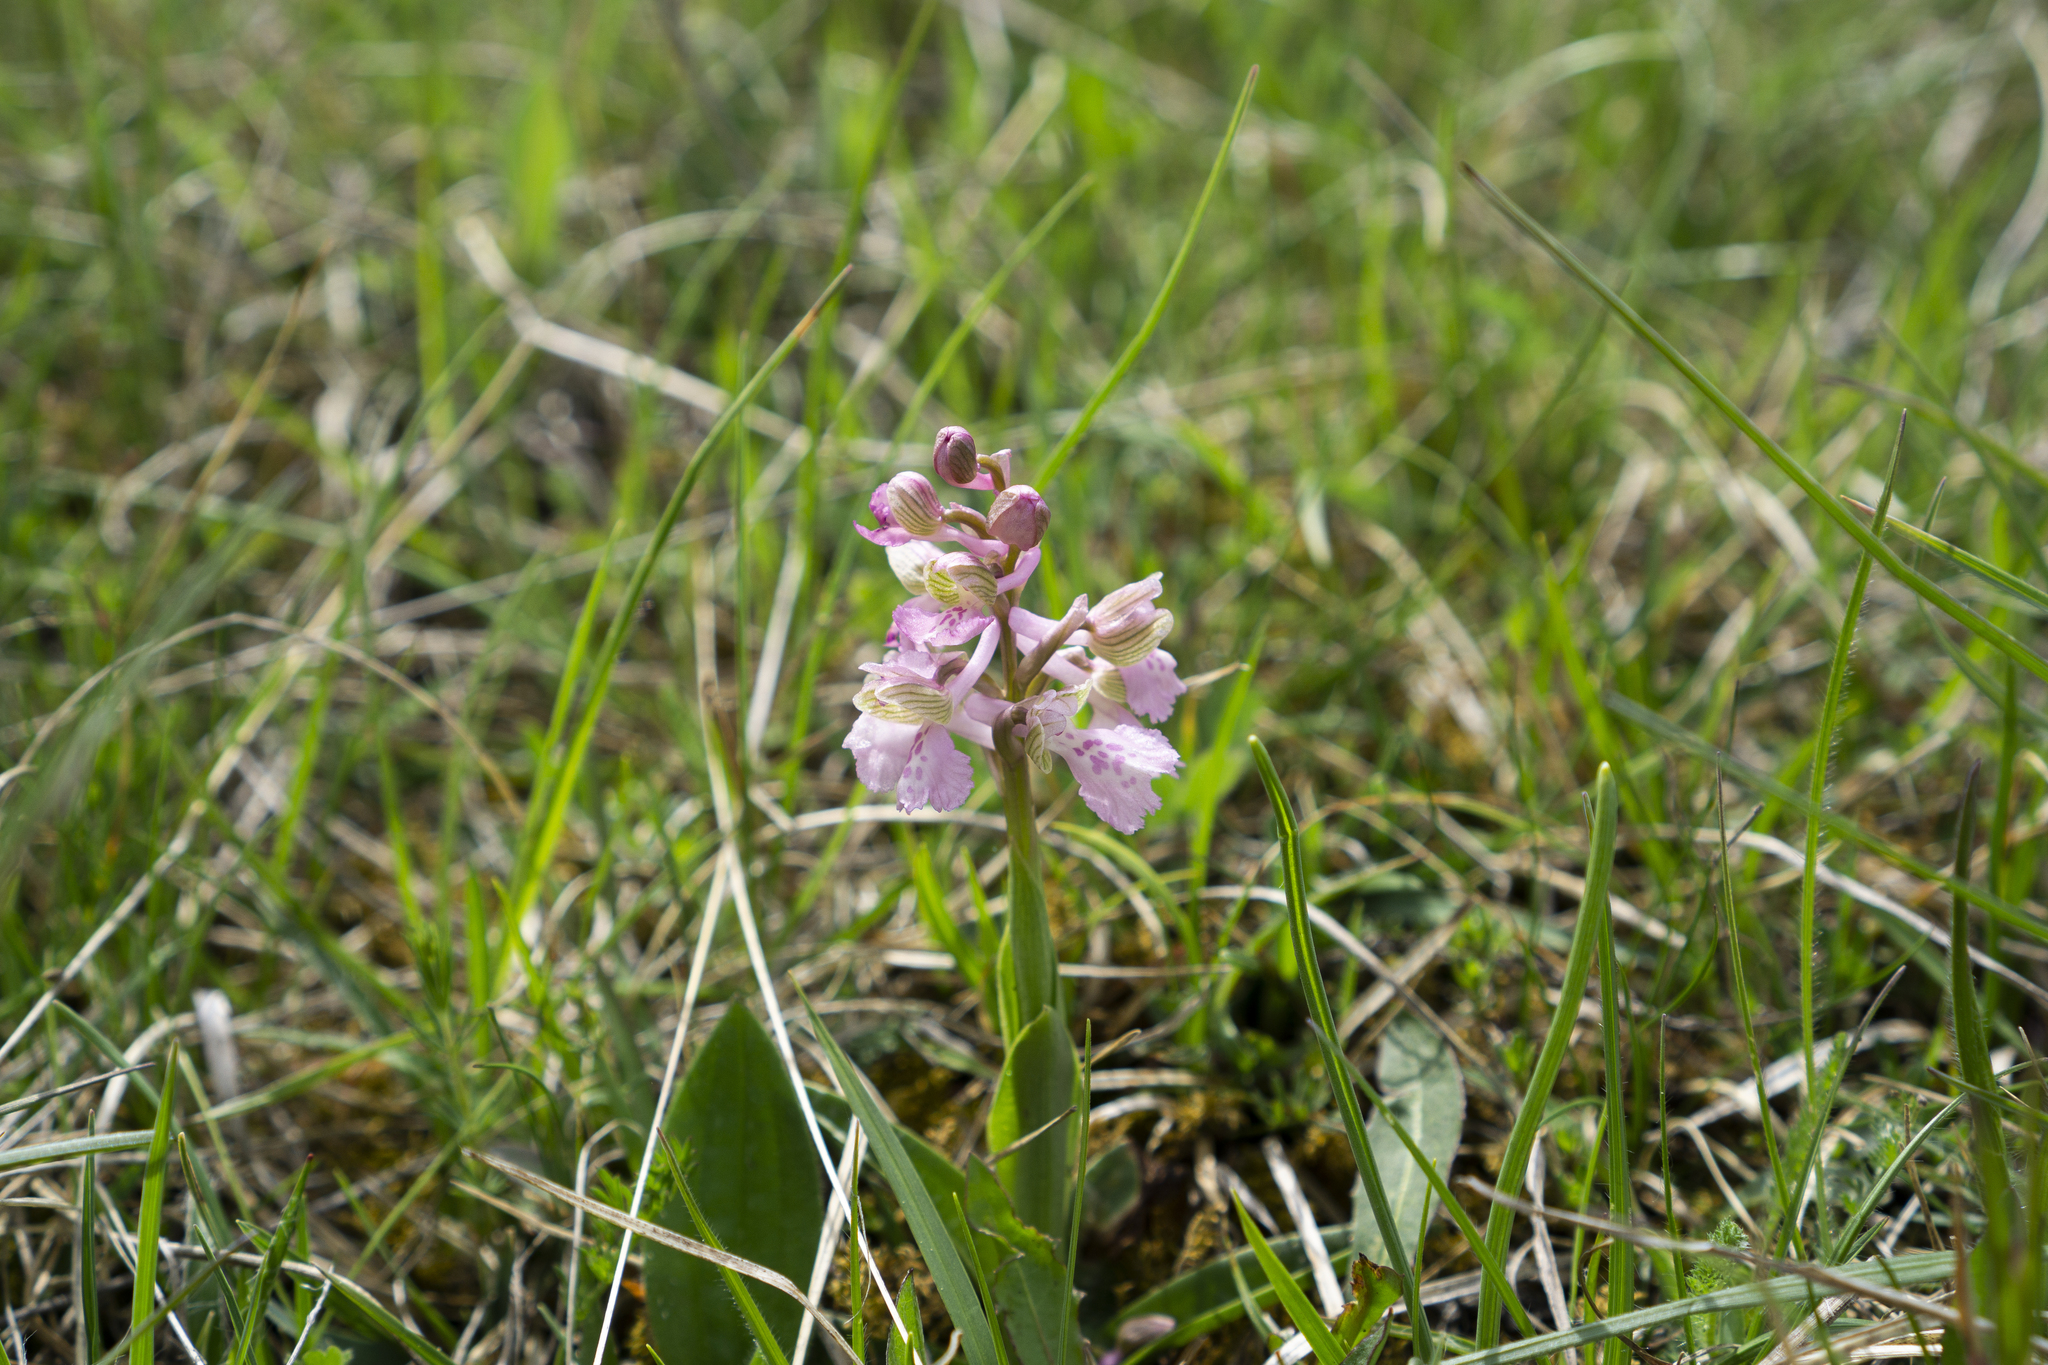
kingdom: Plantae
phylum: Tracheophyta
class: Liliopsida
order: Asparagales
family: Orchidaceae
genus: Anacamptis
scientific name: Anacamptis morio
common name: Green-winged orchid
